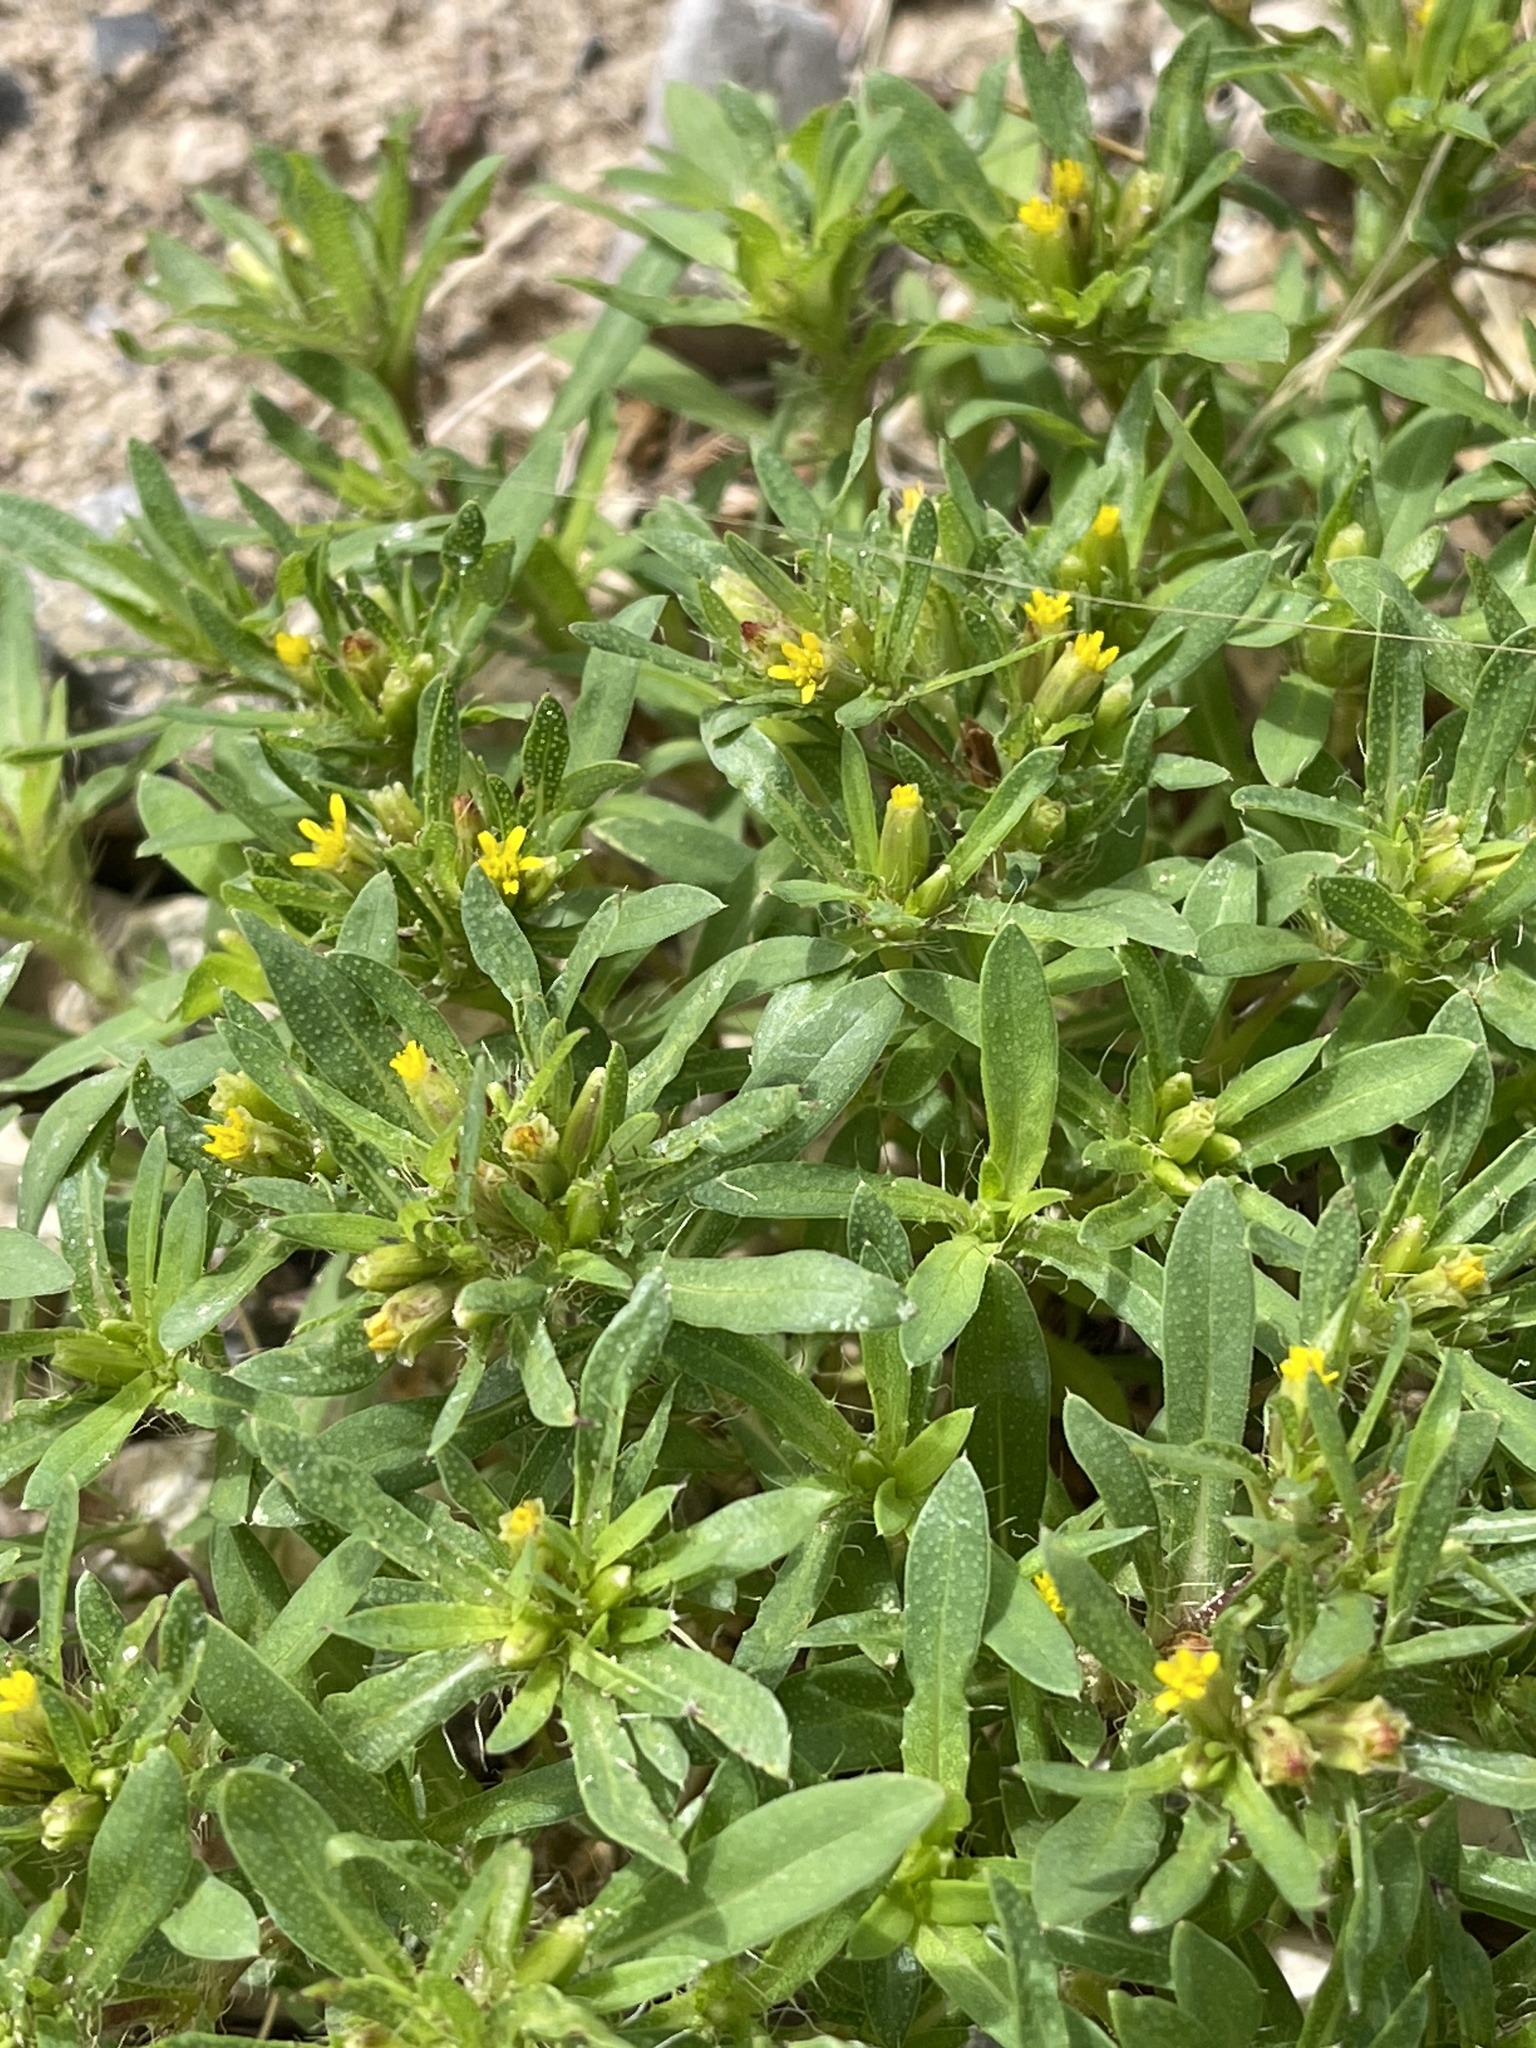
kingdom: Plantae
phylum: Tracheophyta
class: Magnoliopsida
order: Asterales
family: Asteraceae
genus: Pectis
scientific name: Pectis prostrata
